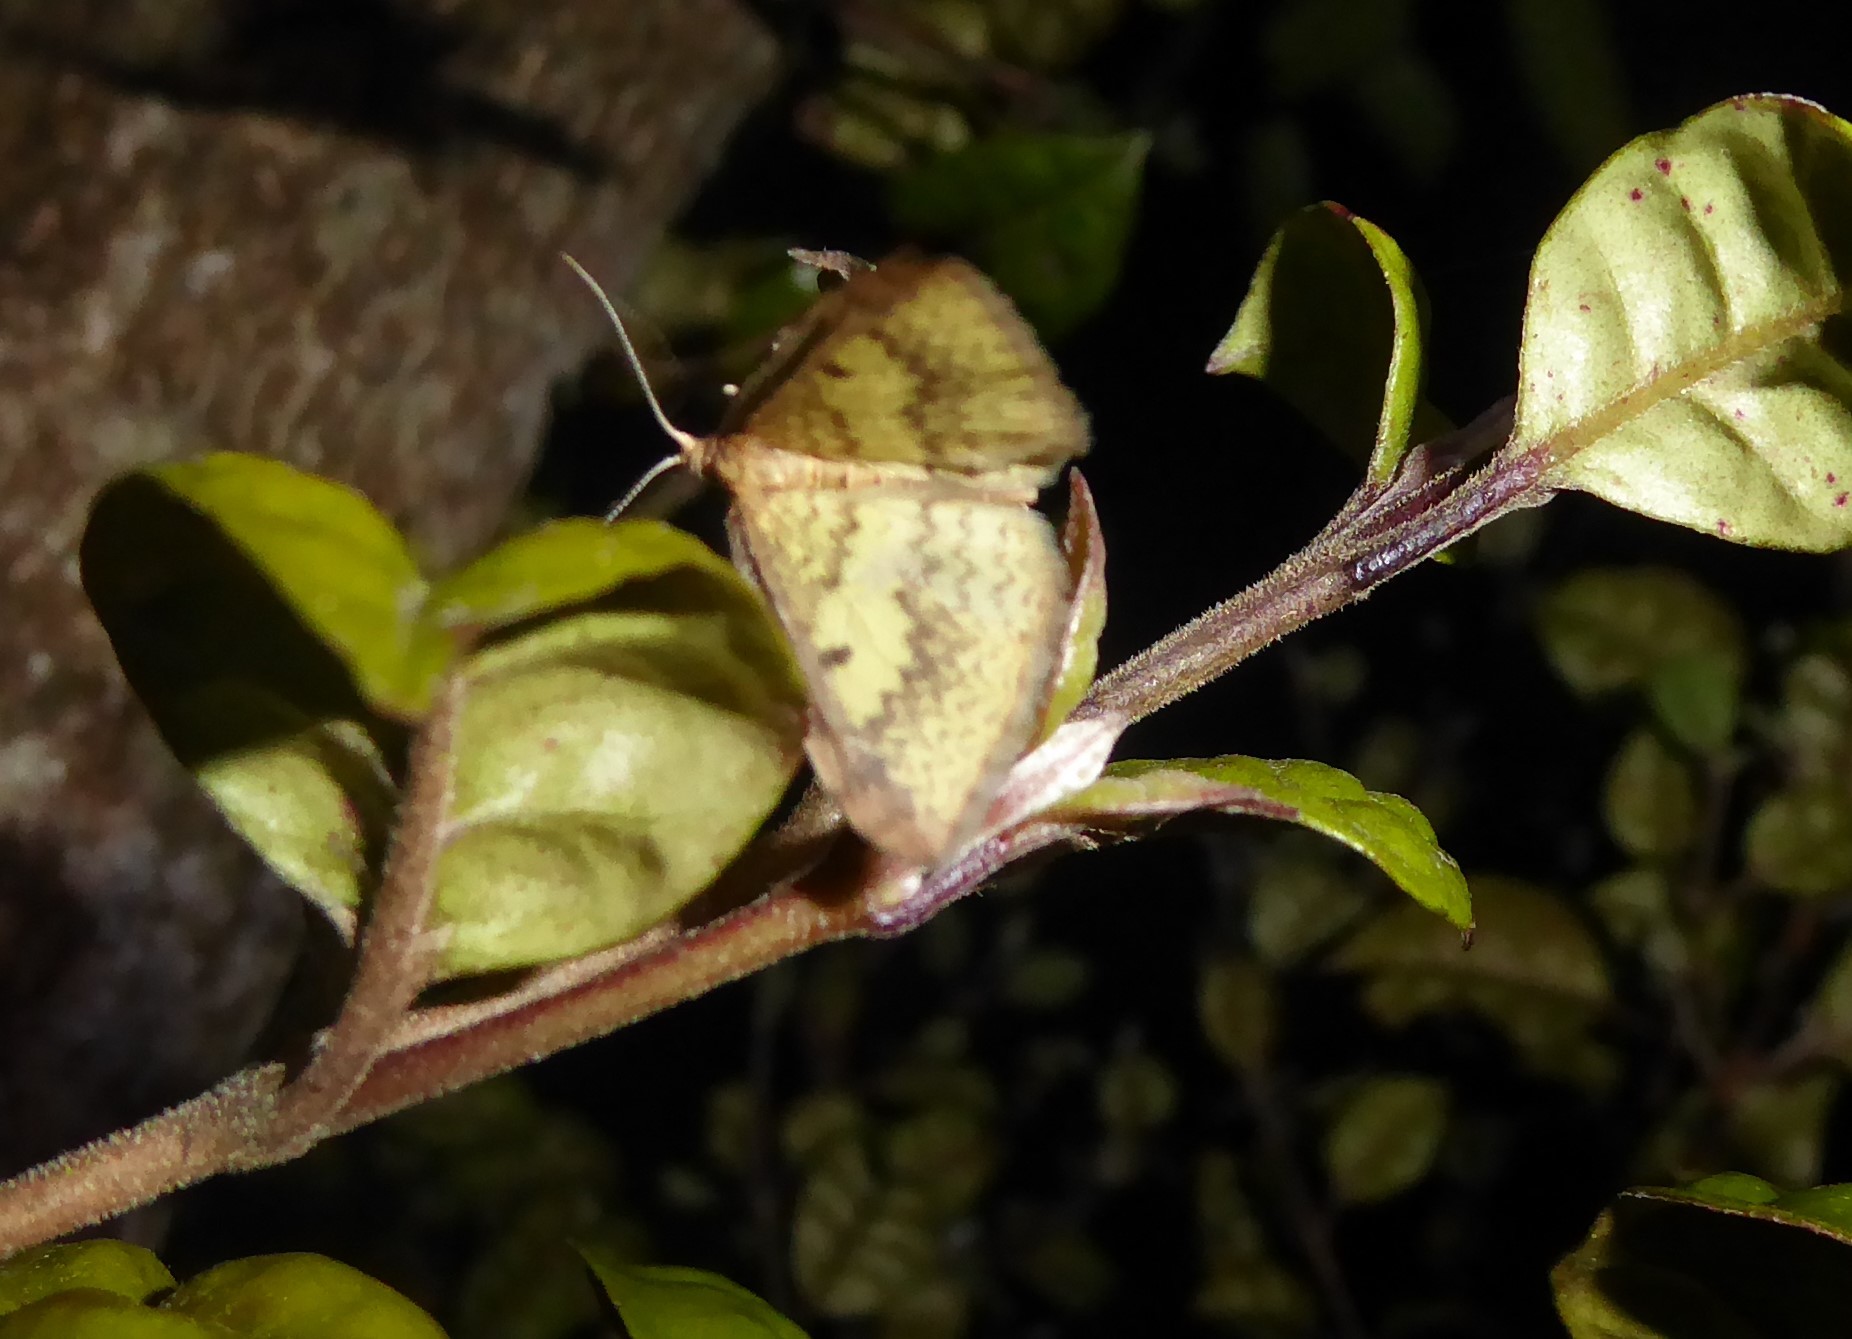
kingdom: Animalia
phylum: Arthropoda
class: Insecta
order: Lepidoptera
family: Geometridae
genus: Epiphryne
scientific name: Epiphryne undosata
